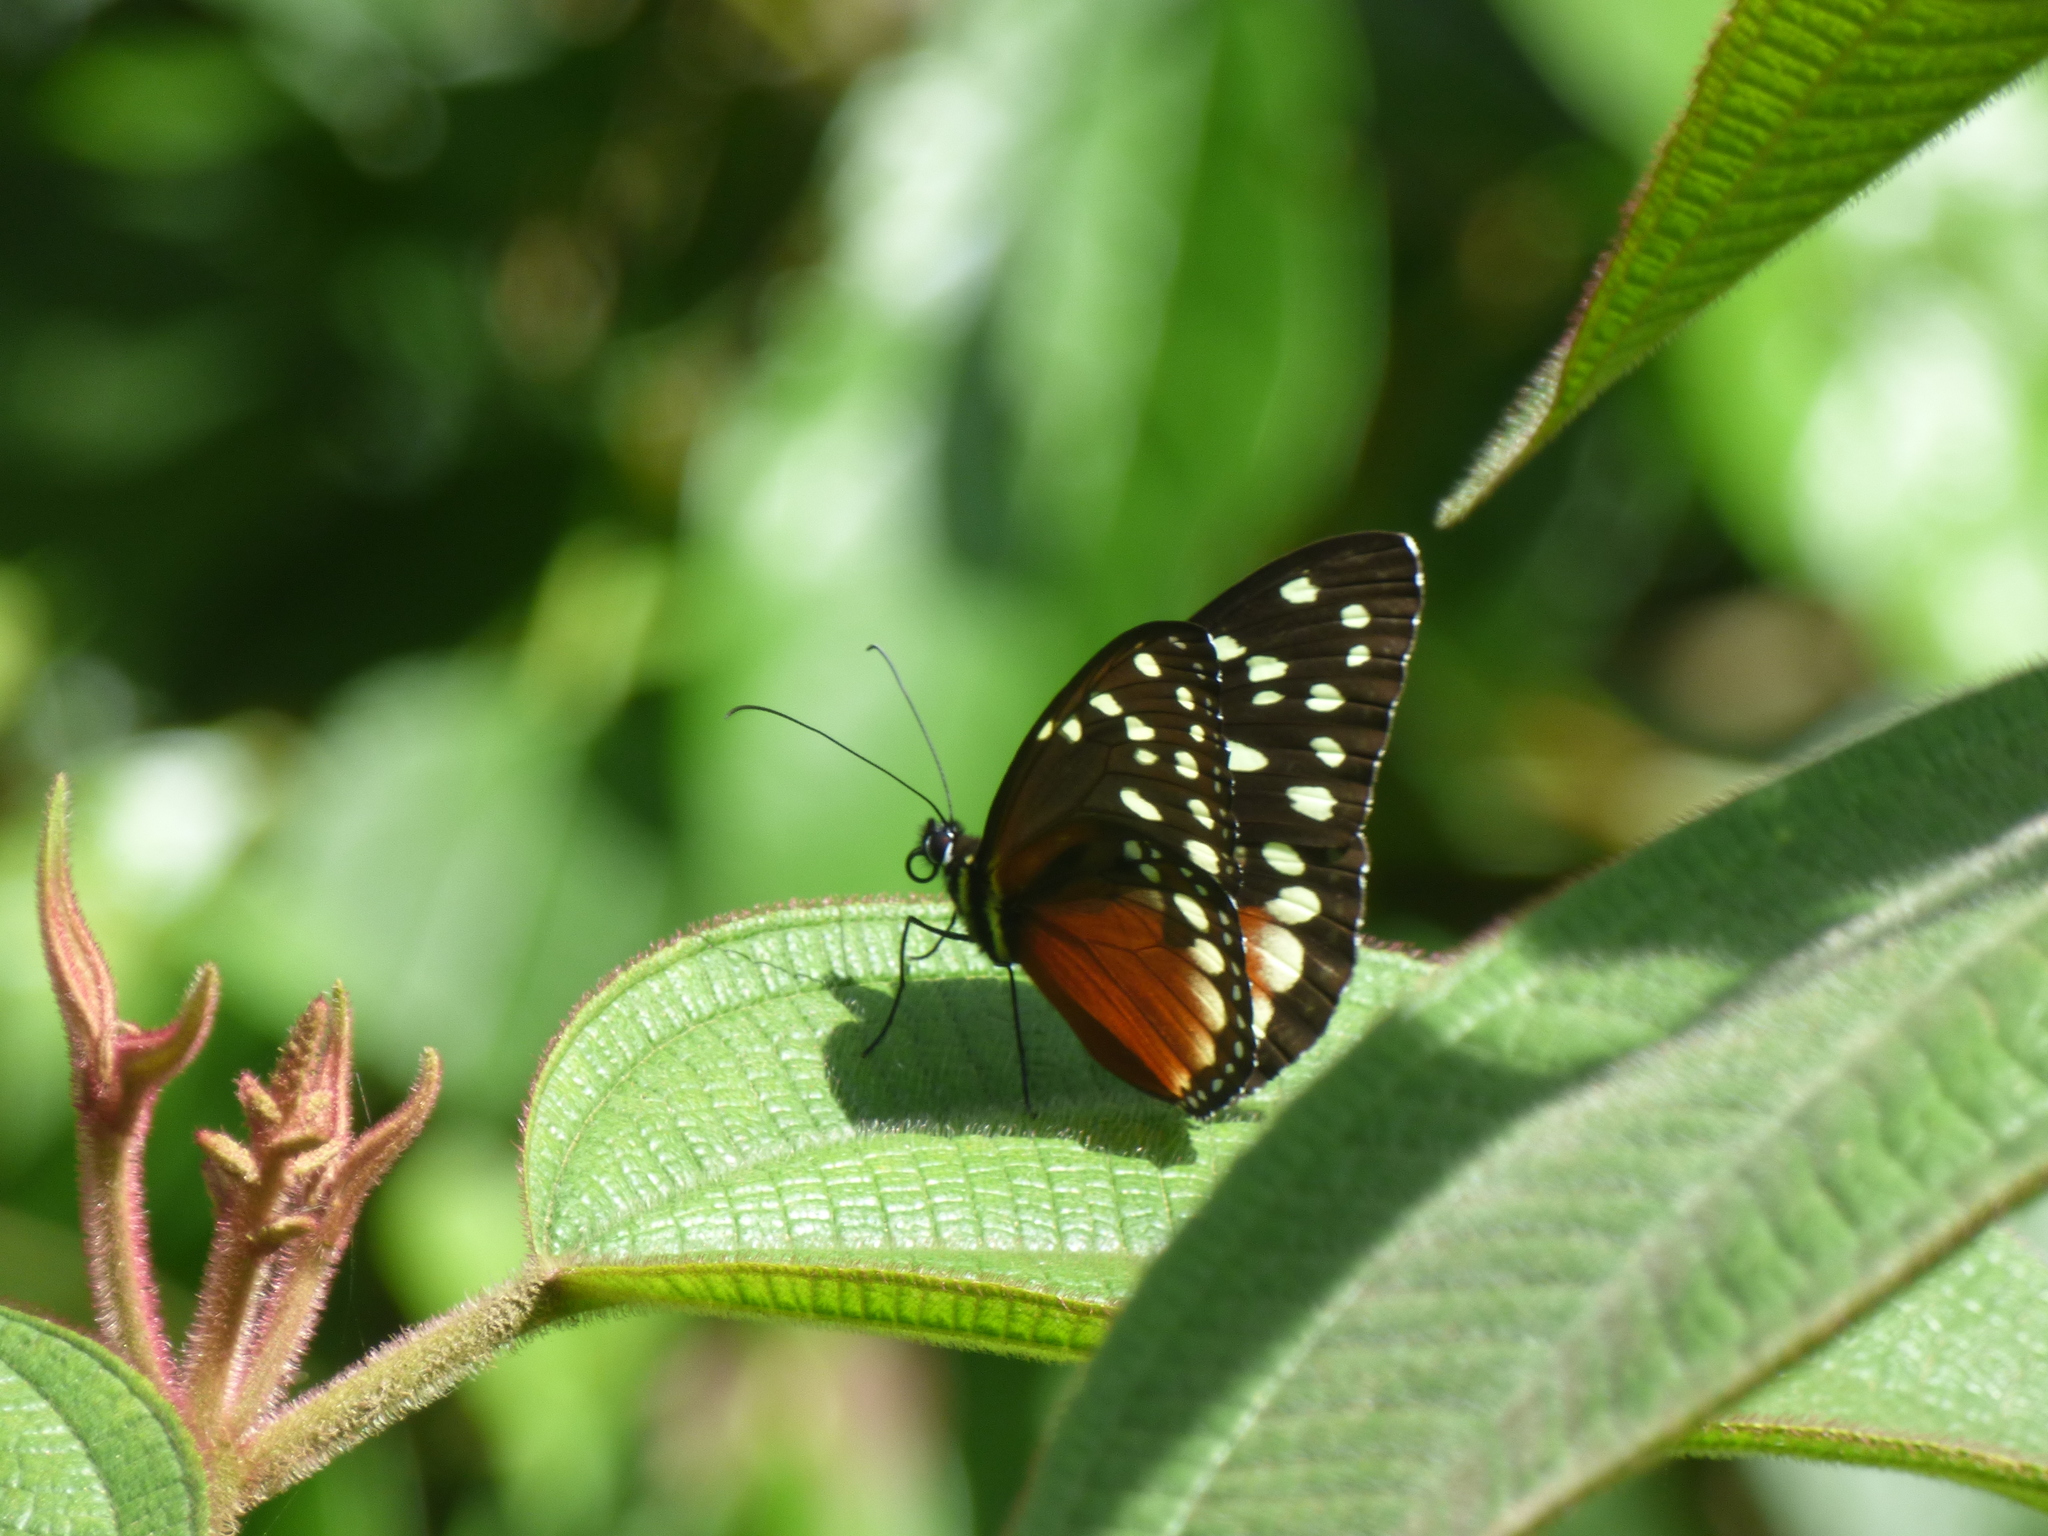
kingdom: Animalia
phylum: Arthropoda
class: Insecta
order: Lepidoptera
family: Nymphalidae
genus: Tithorea
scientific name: Tithorea tarricina
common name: Cream-spotted tigerwing
